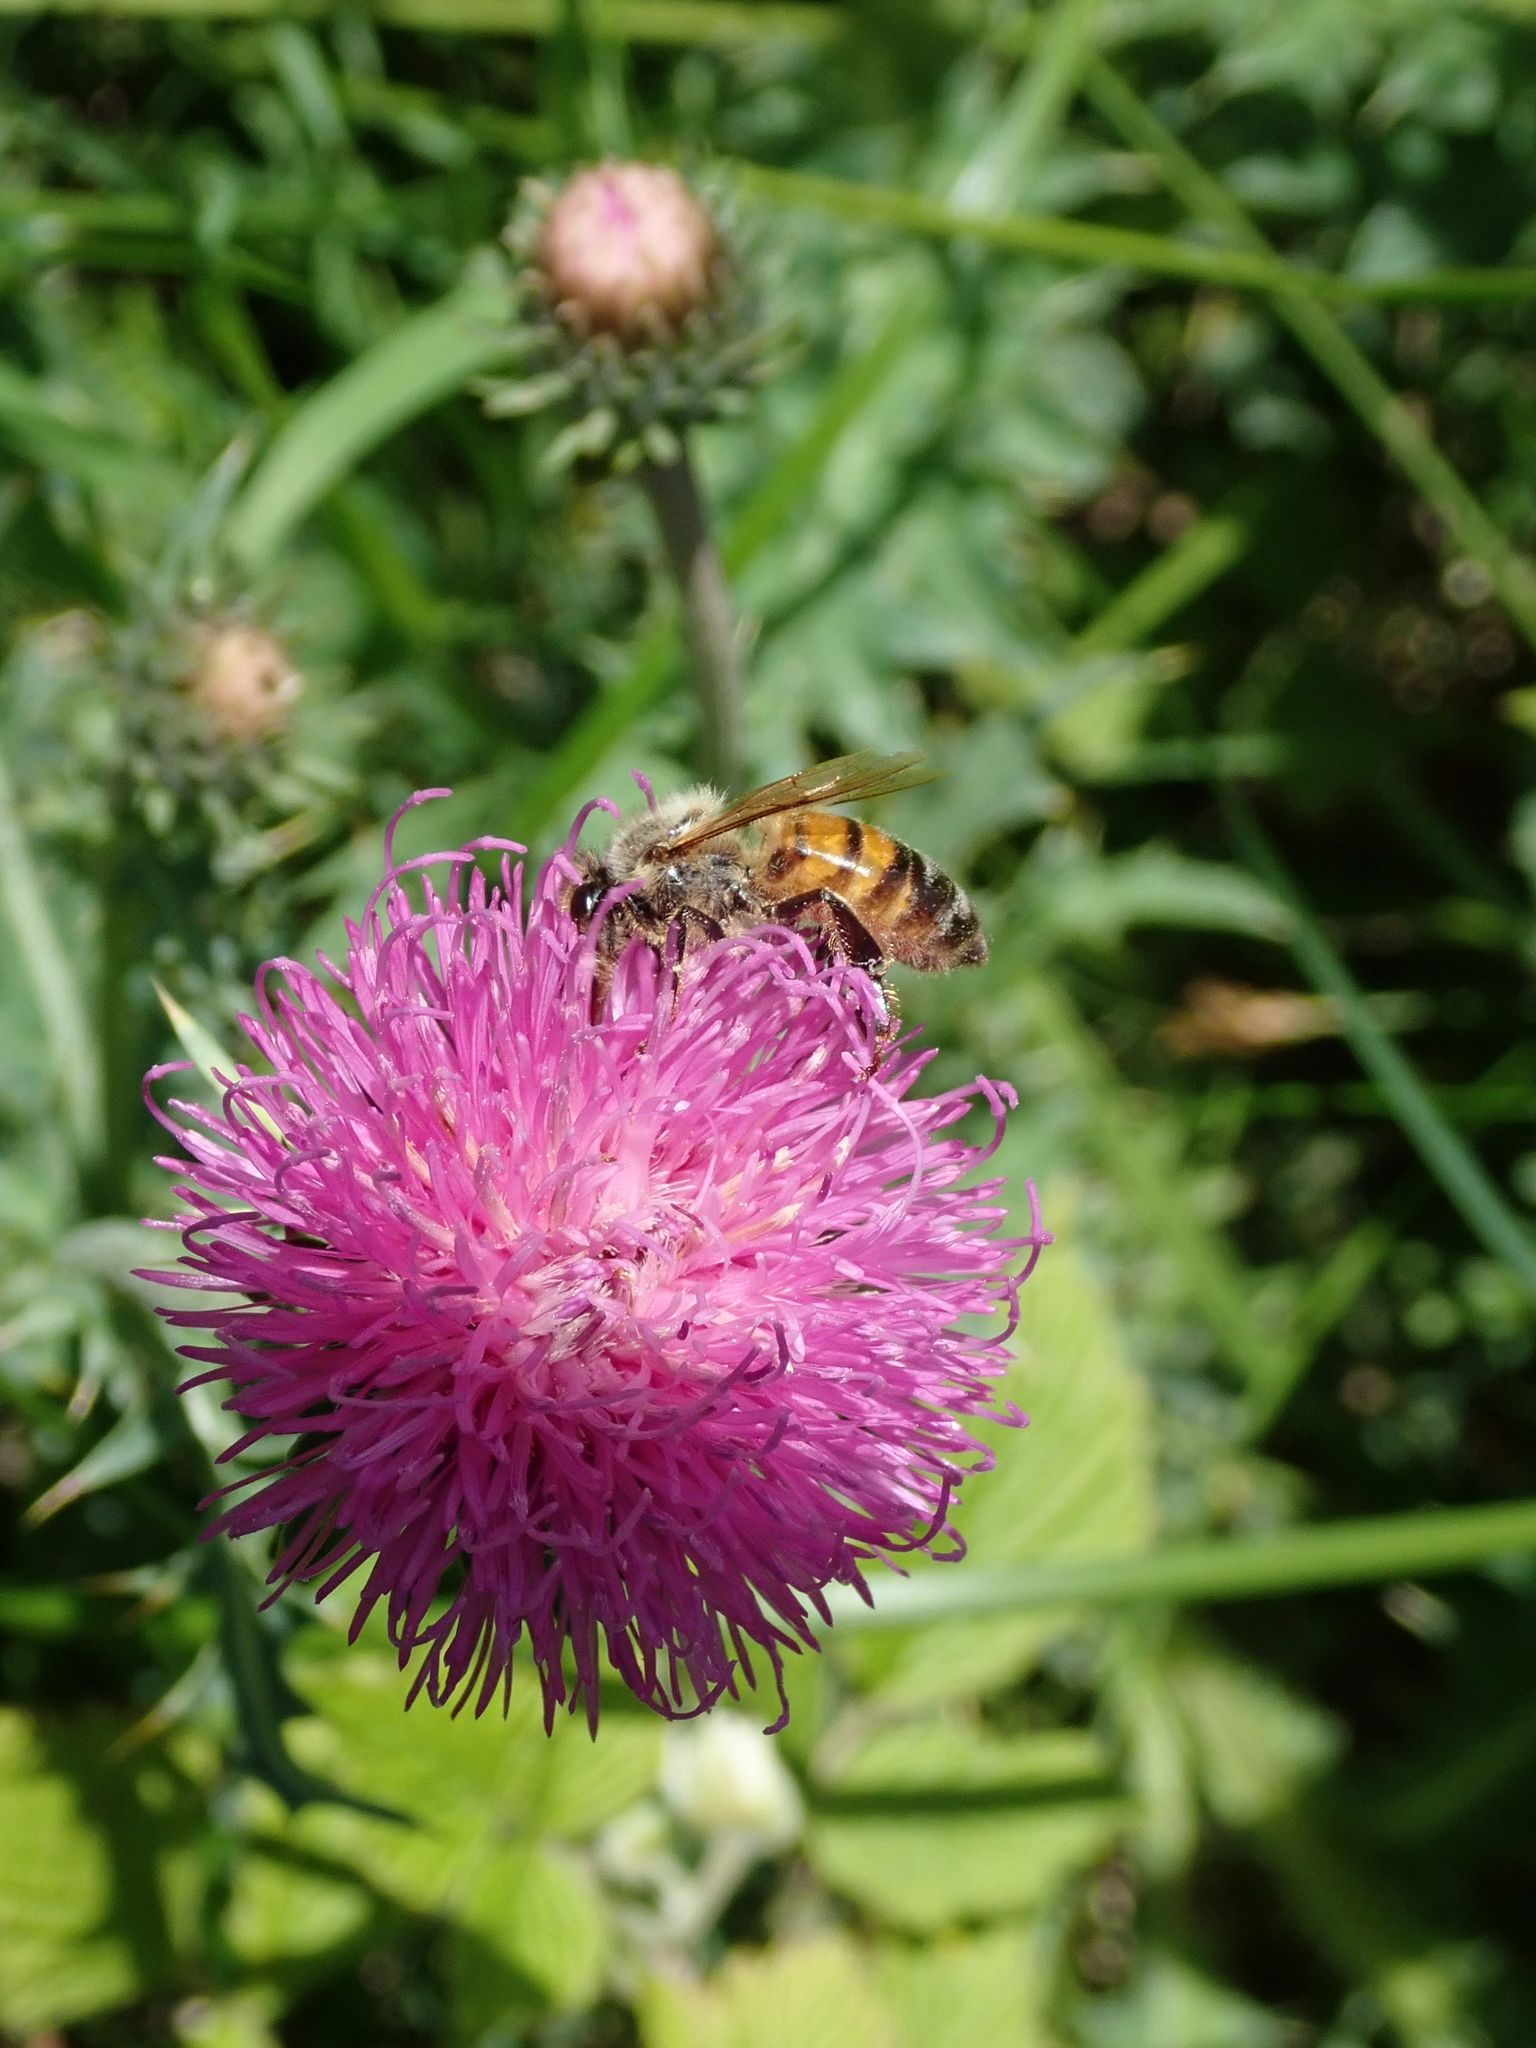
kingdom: Animalia
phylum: Arthropoda
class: Insecta
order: Hymenoptera
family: Apidae
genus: Apis
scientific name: Apis mellifera
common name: Honey bee
